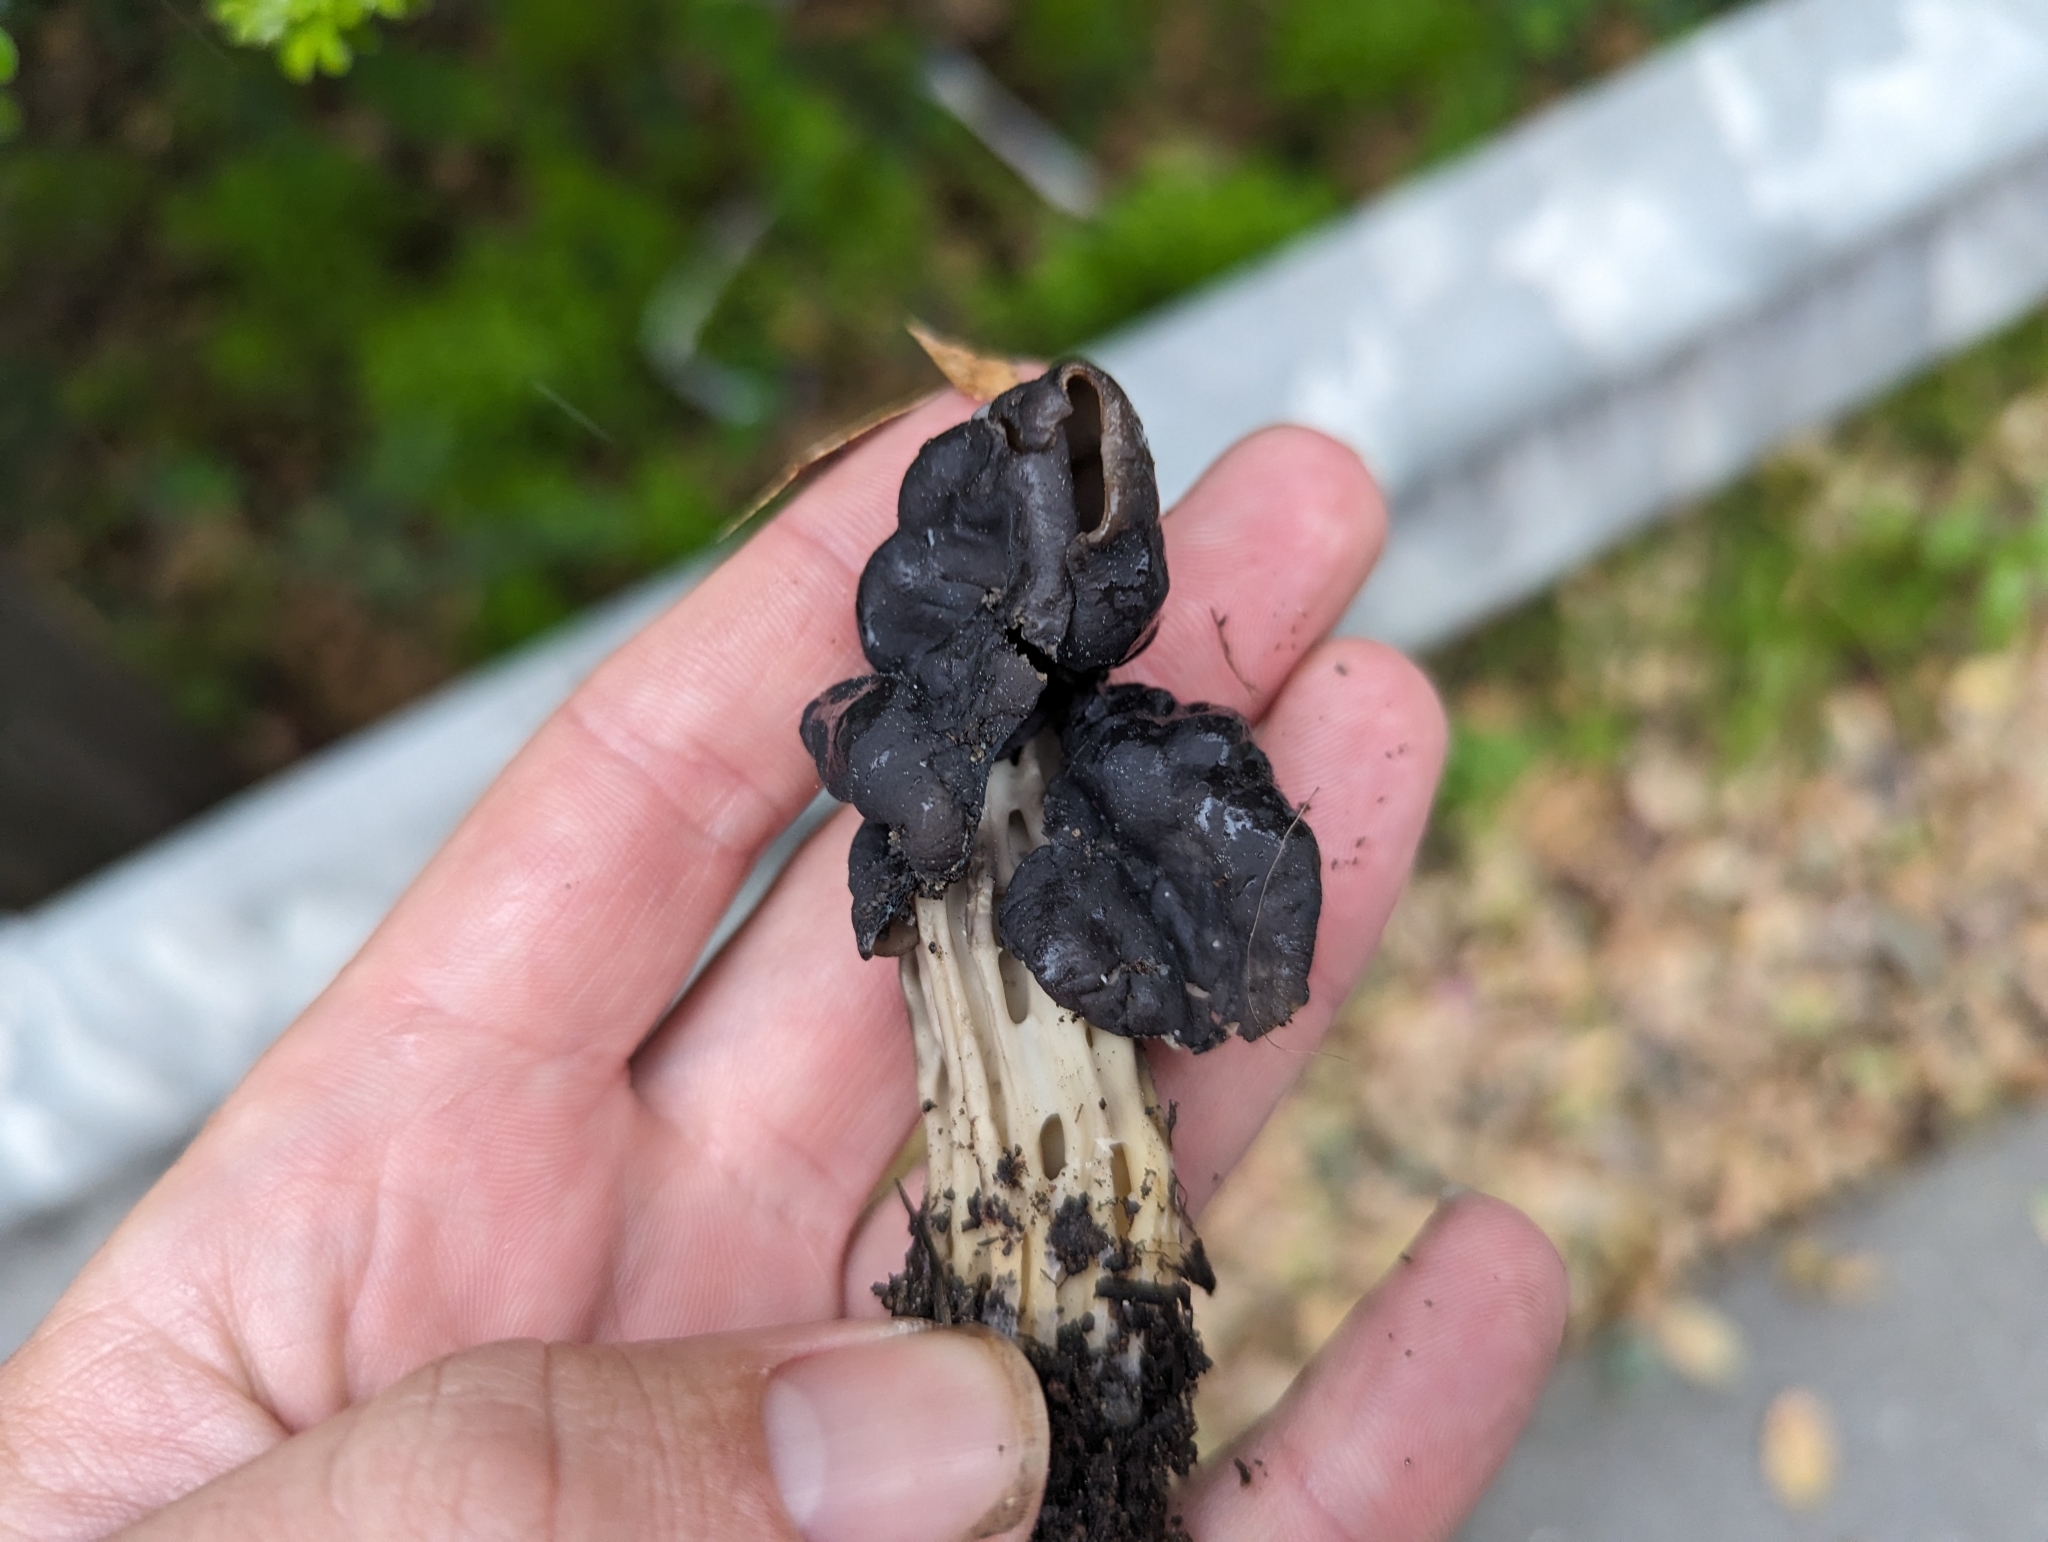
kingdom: Fungi
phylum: Ascomycota
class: Pezizomycetes
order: Pezizales
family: Helvellaceae
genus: Helvella
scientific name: Helvella dryophila
